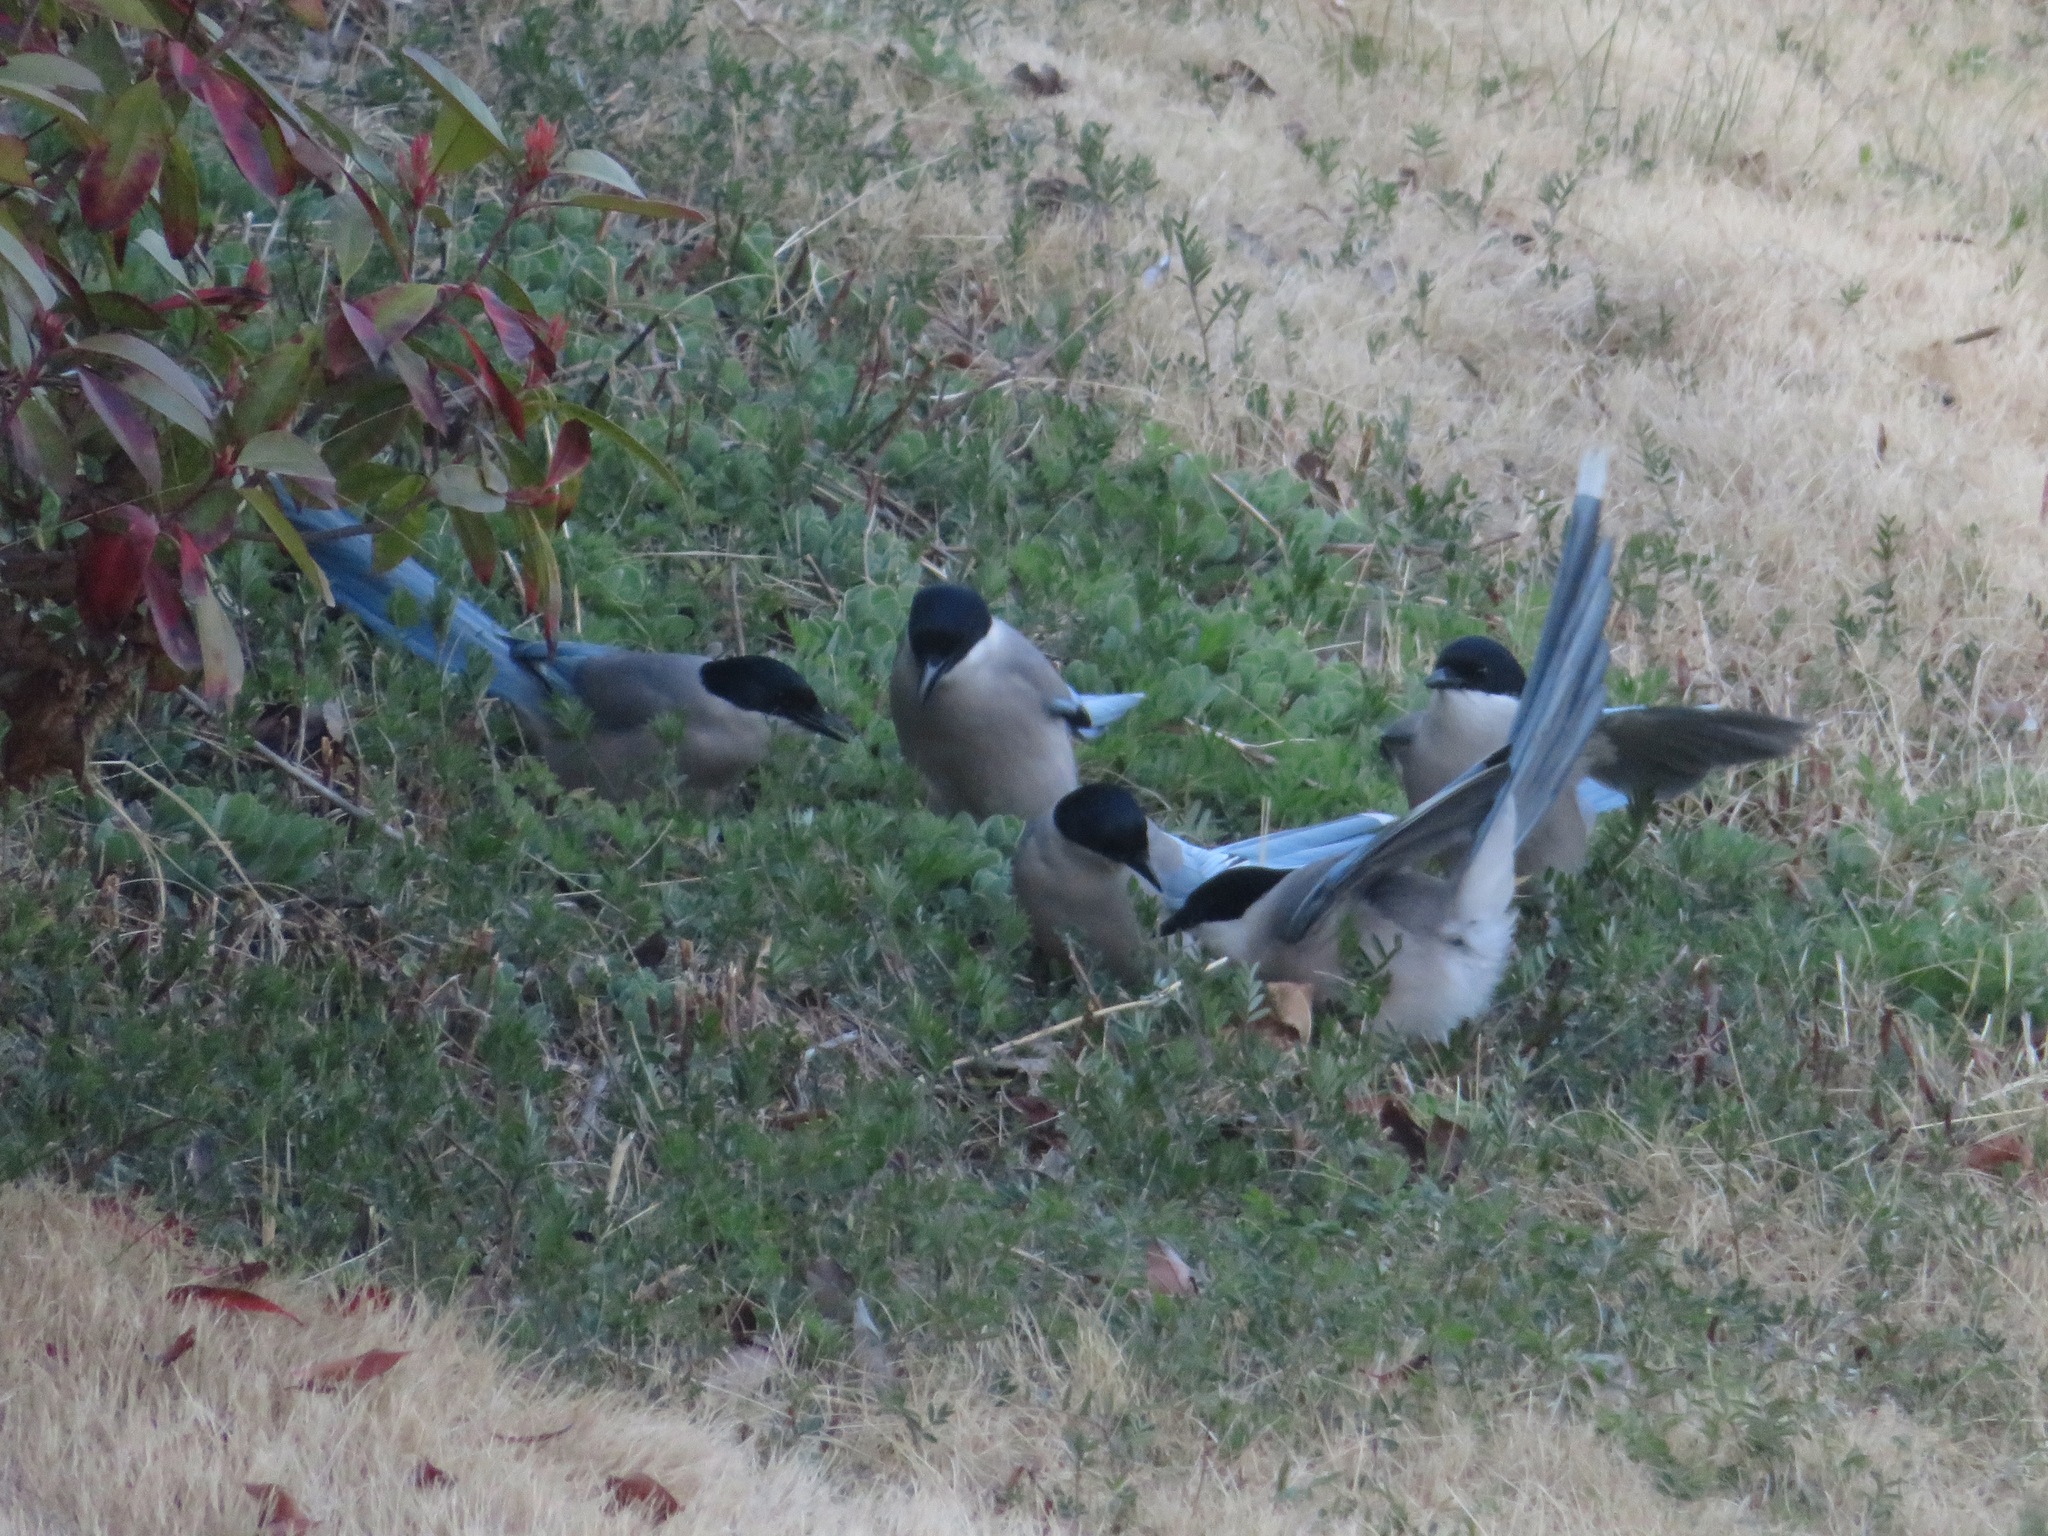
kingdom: Animalia
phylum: Chordata
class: Aves
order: Passeriformes
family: Corvidae
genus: Cyanopica
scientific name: Cyanopica cyanus
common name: Azure-winged magpie
